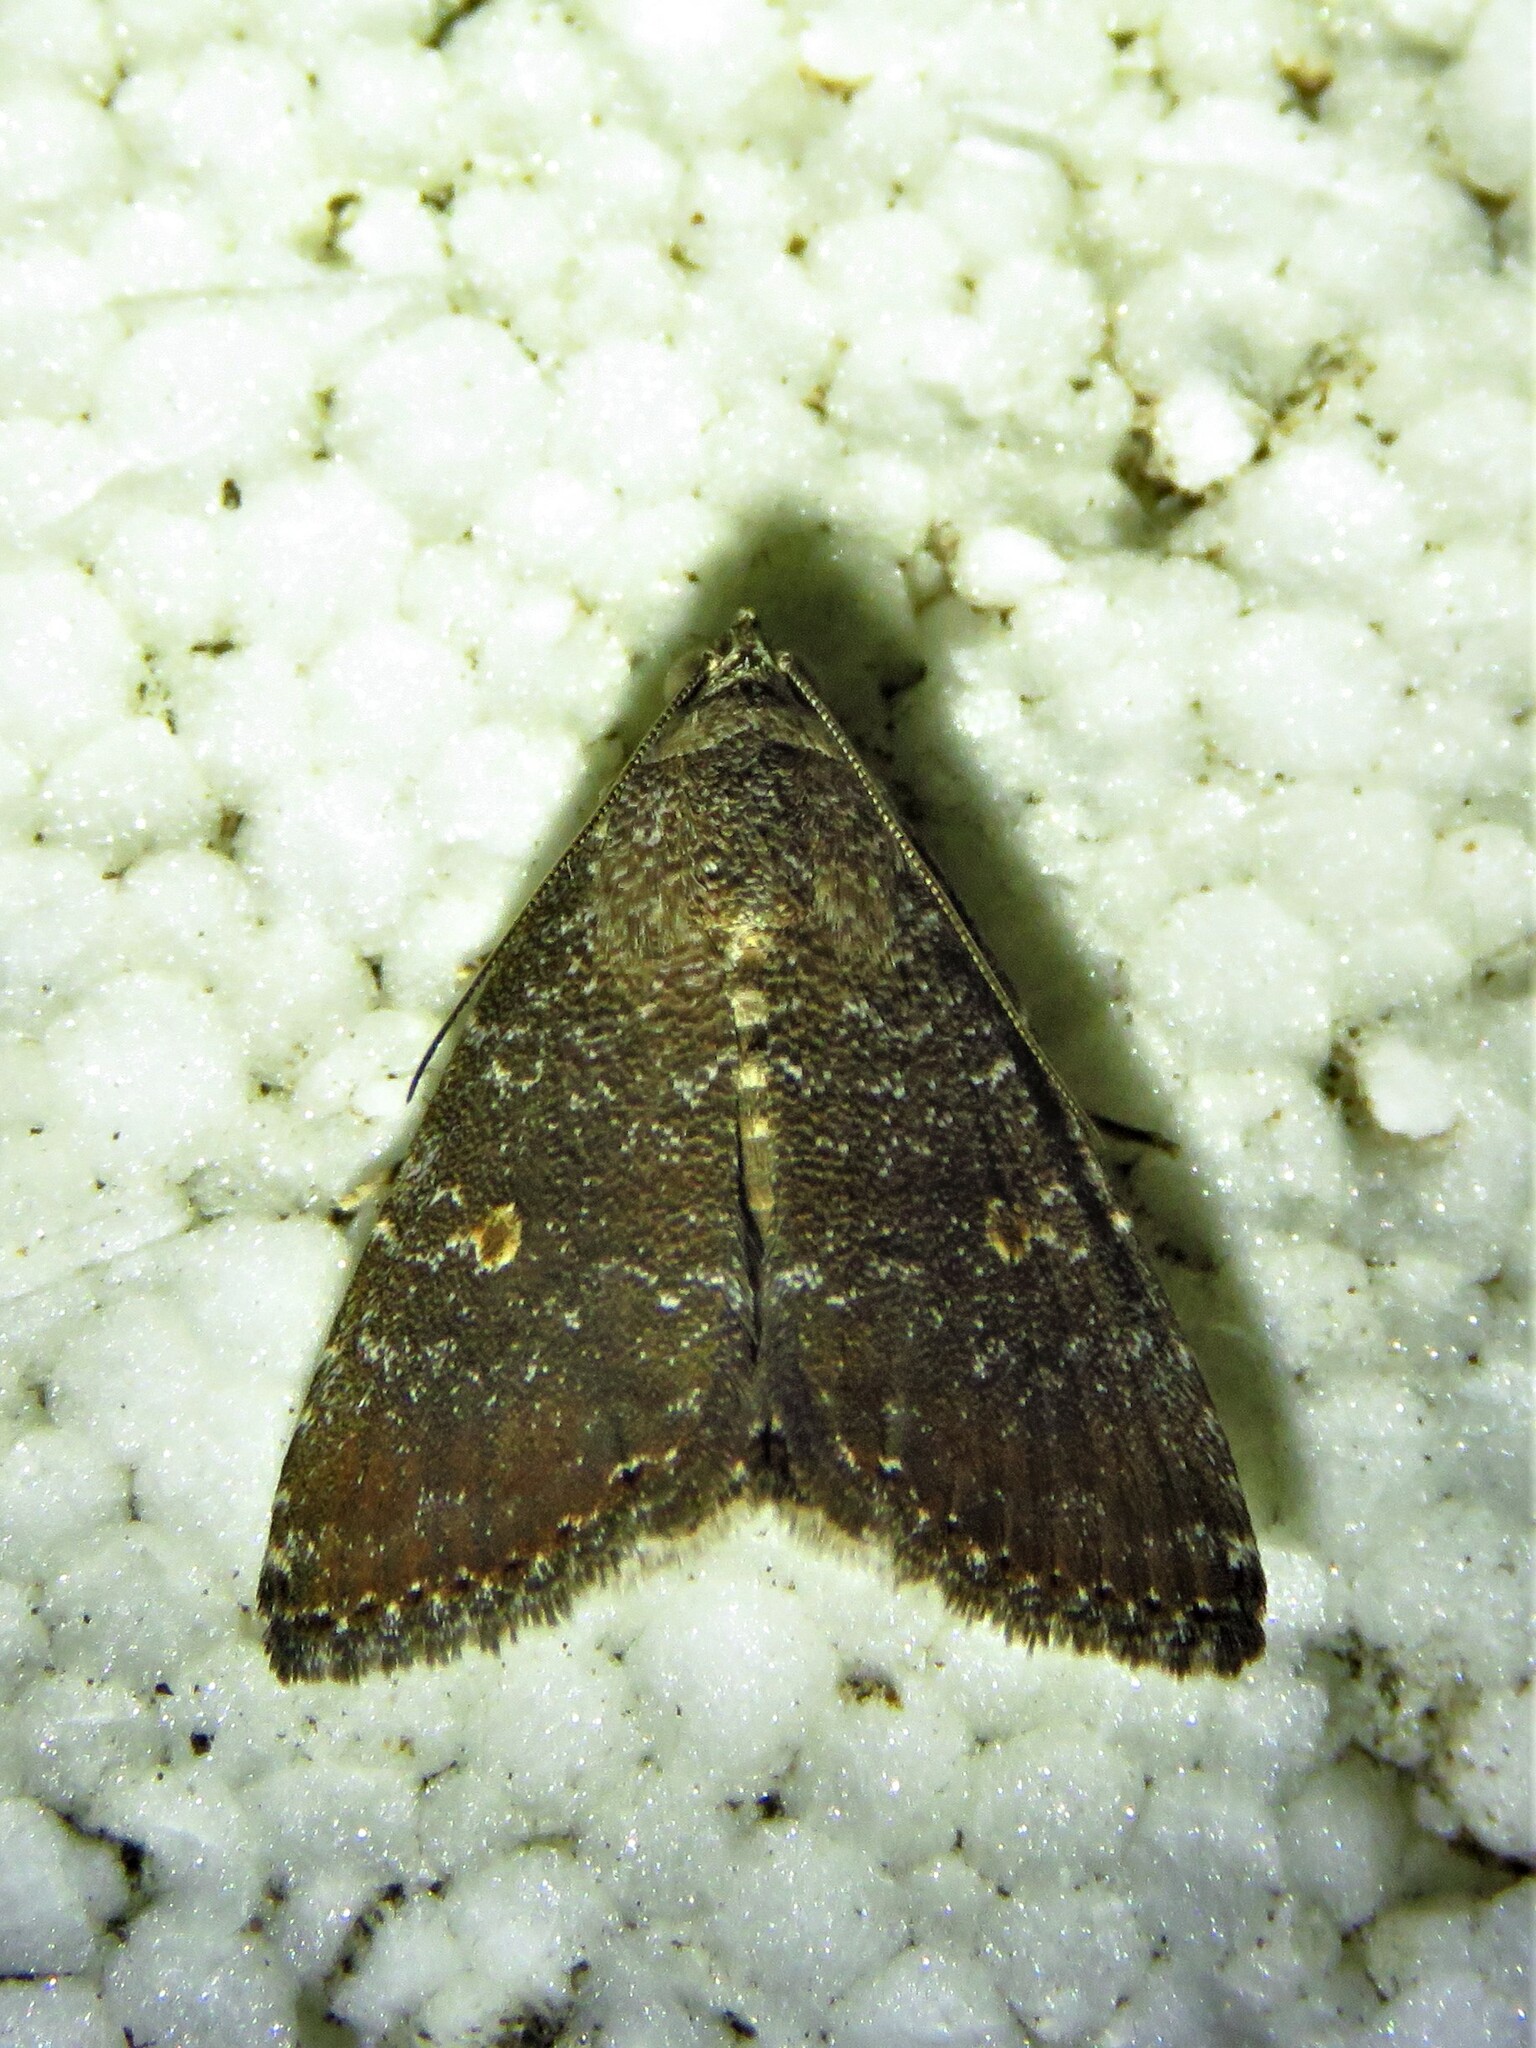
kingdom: Animalia
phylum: Arthropoda
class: Insecta
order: Lepidoptera
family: Noctuidae
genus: Amyna
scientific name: Amyna stricta
